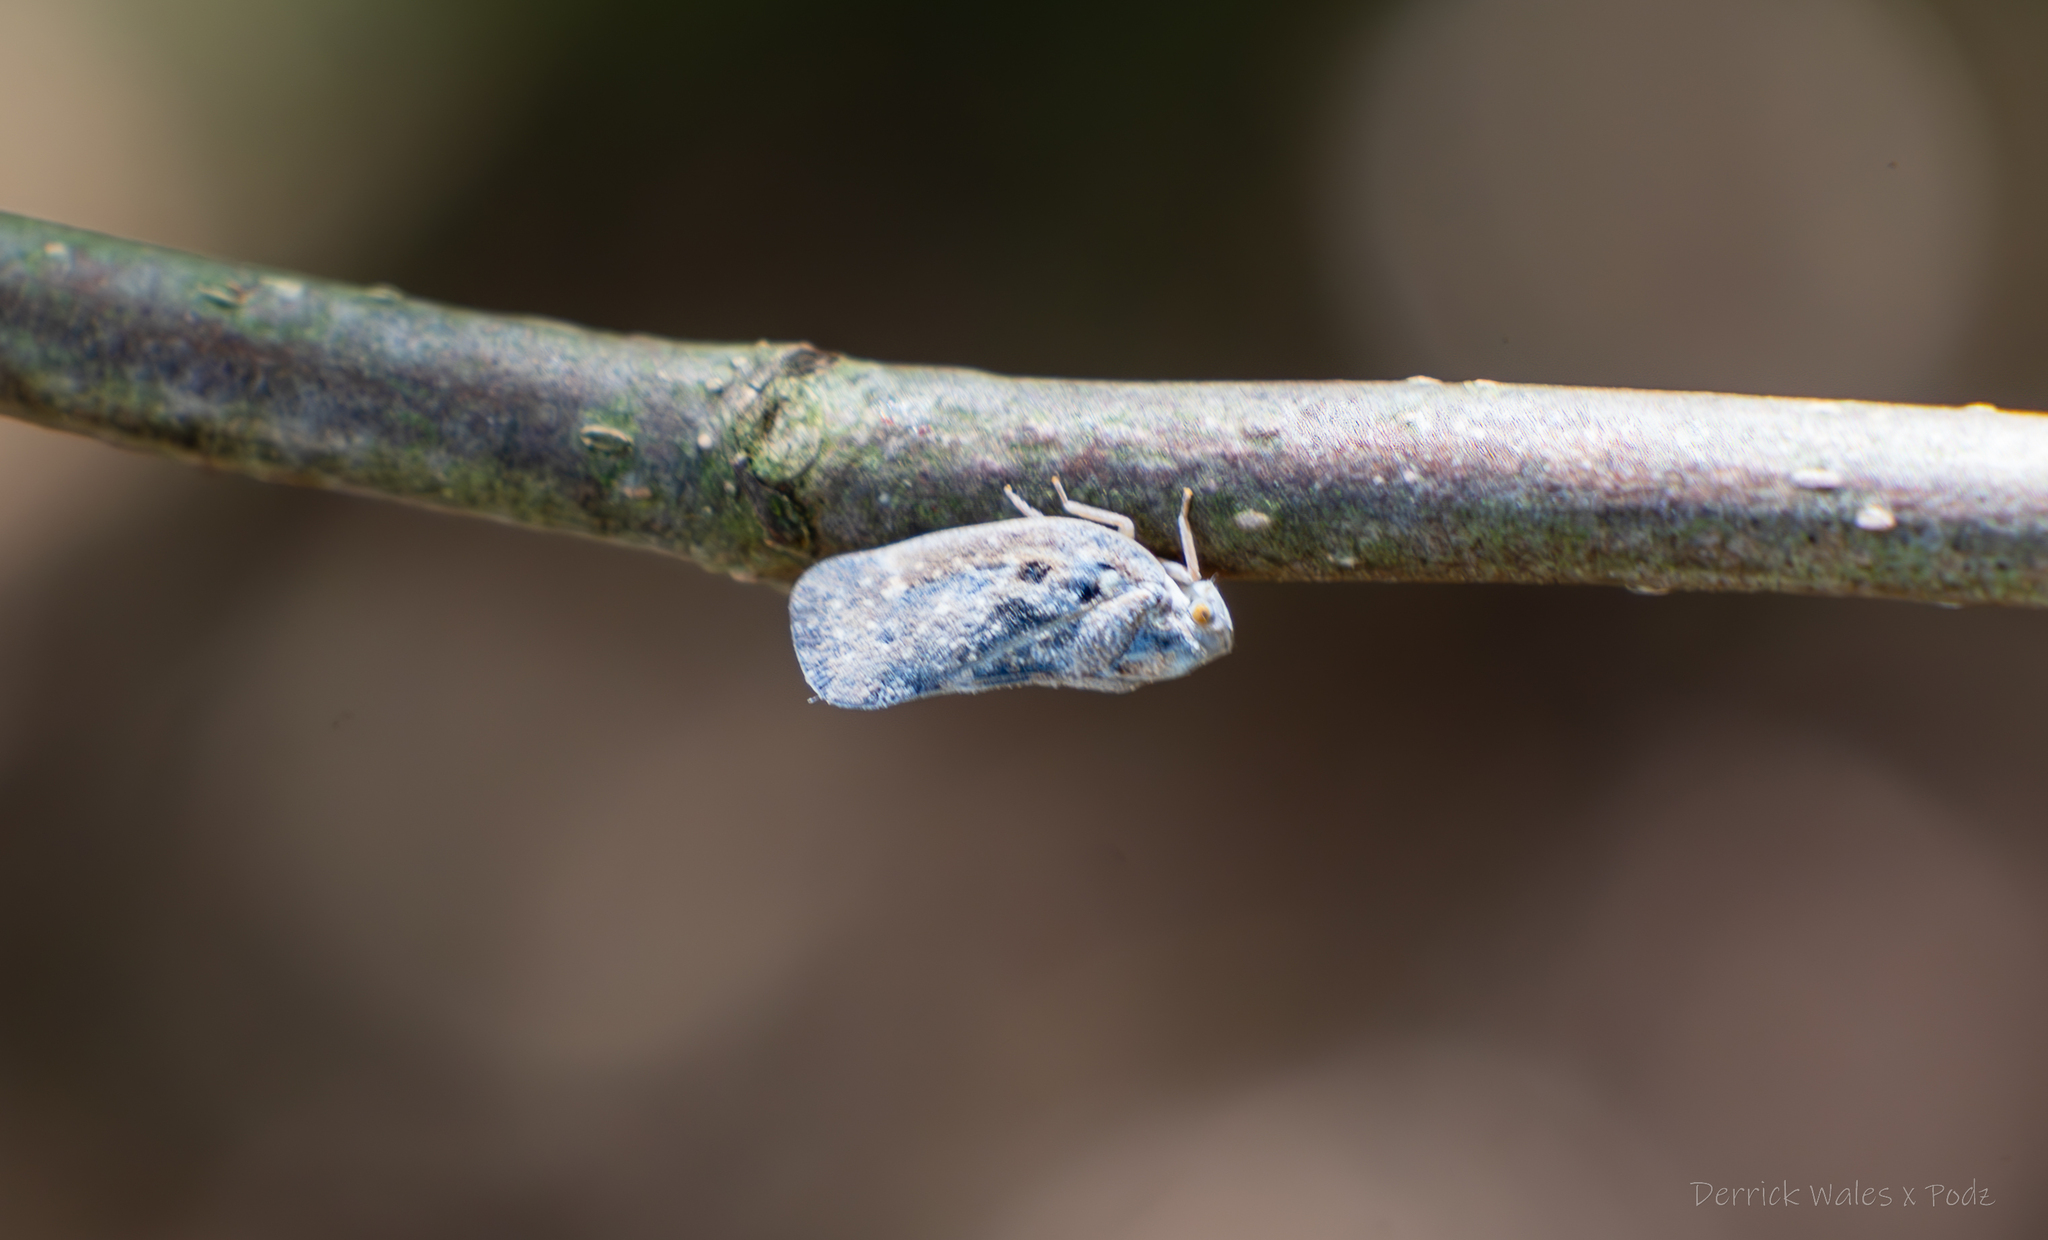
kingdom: Animalia
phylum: Arthropoda
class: Insecta
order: Hemiptera
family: Flatidae
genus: Metcalfa
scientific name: Metcalfa pruinosa
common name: Citrus flatid planthopper
